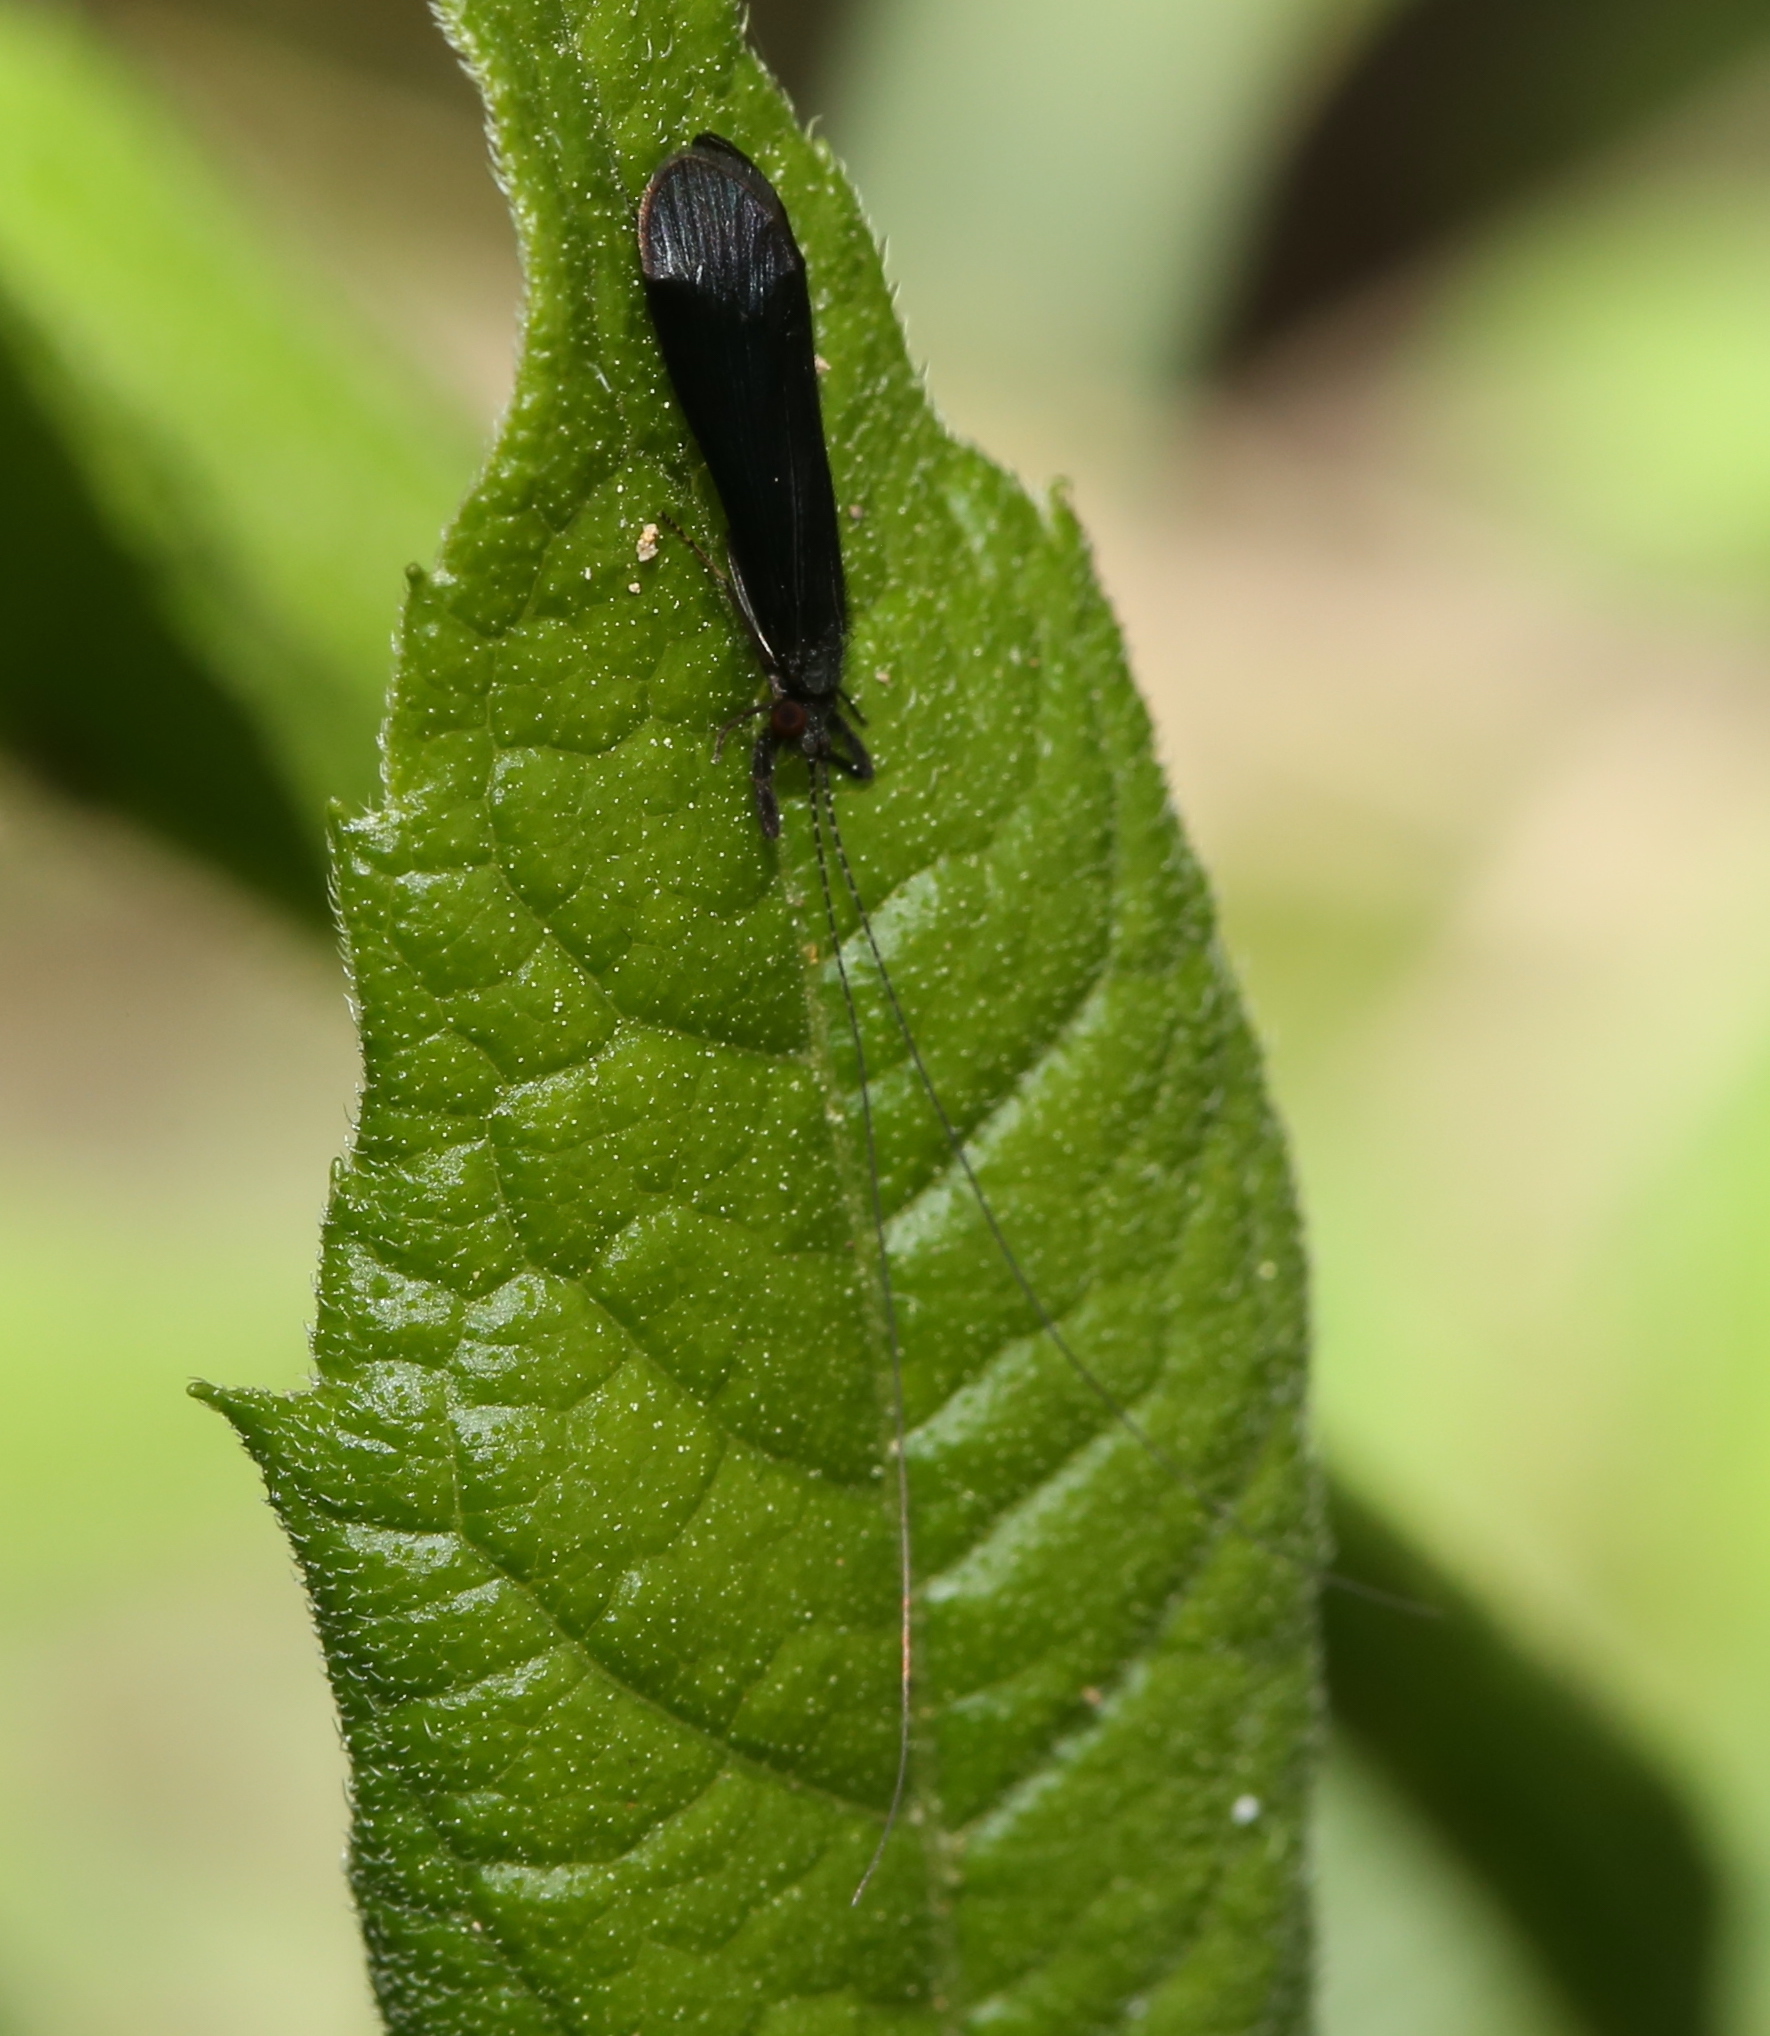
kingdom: Animalia
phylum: Arthropoda
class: Insecta
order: Trichoptera
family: Leptoceridae
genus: Mystacides
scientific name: Mystacides sepulchralis
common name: Black dancer caddisfly
